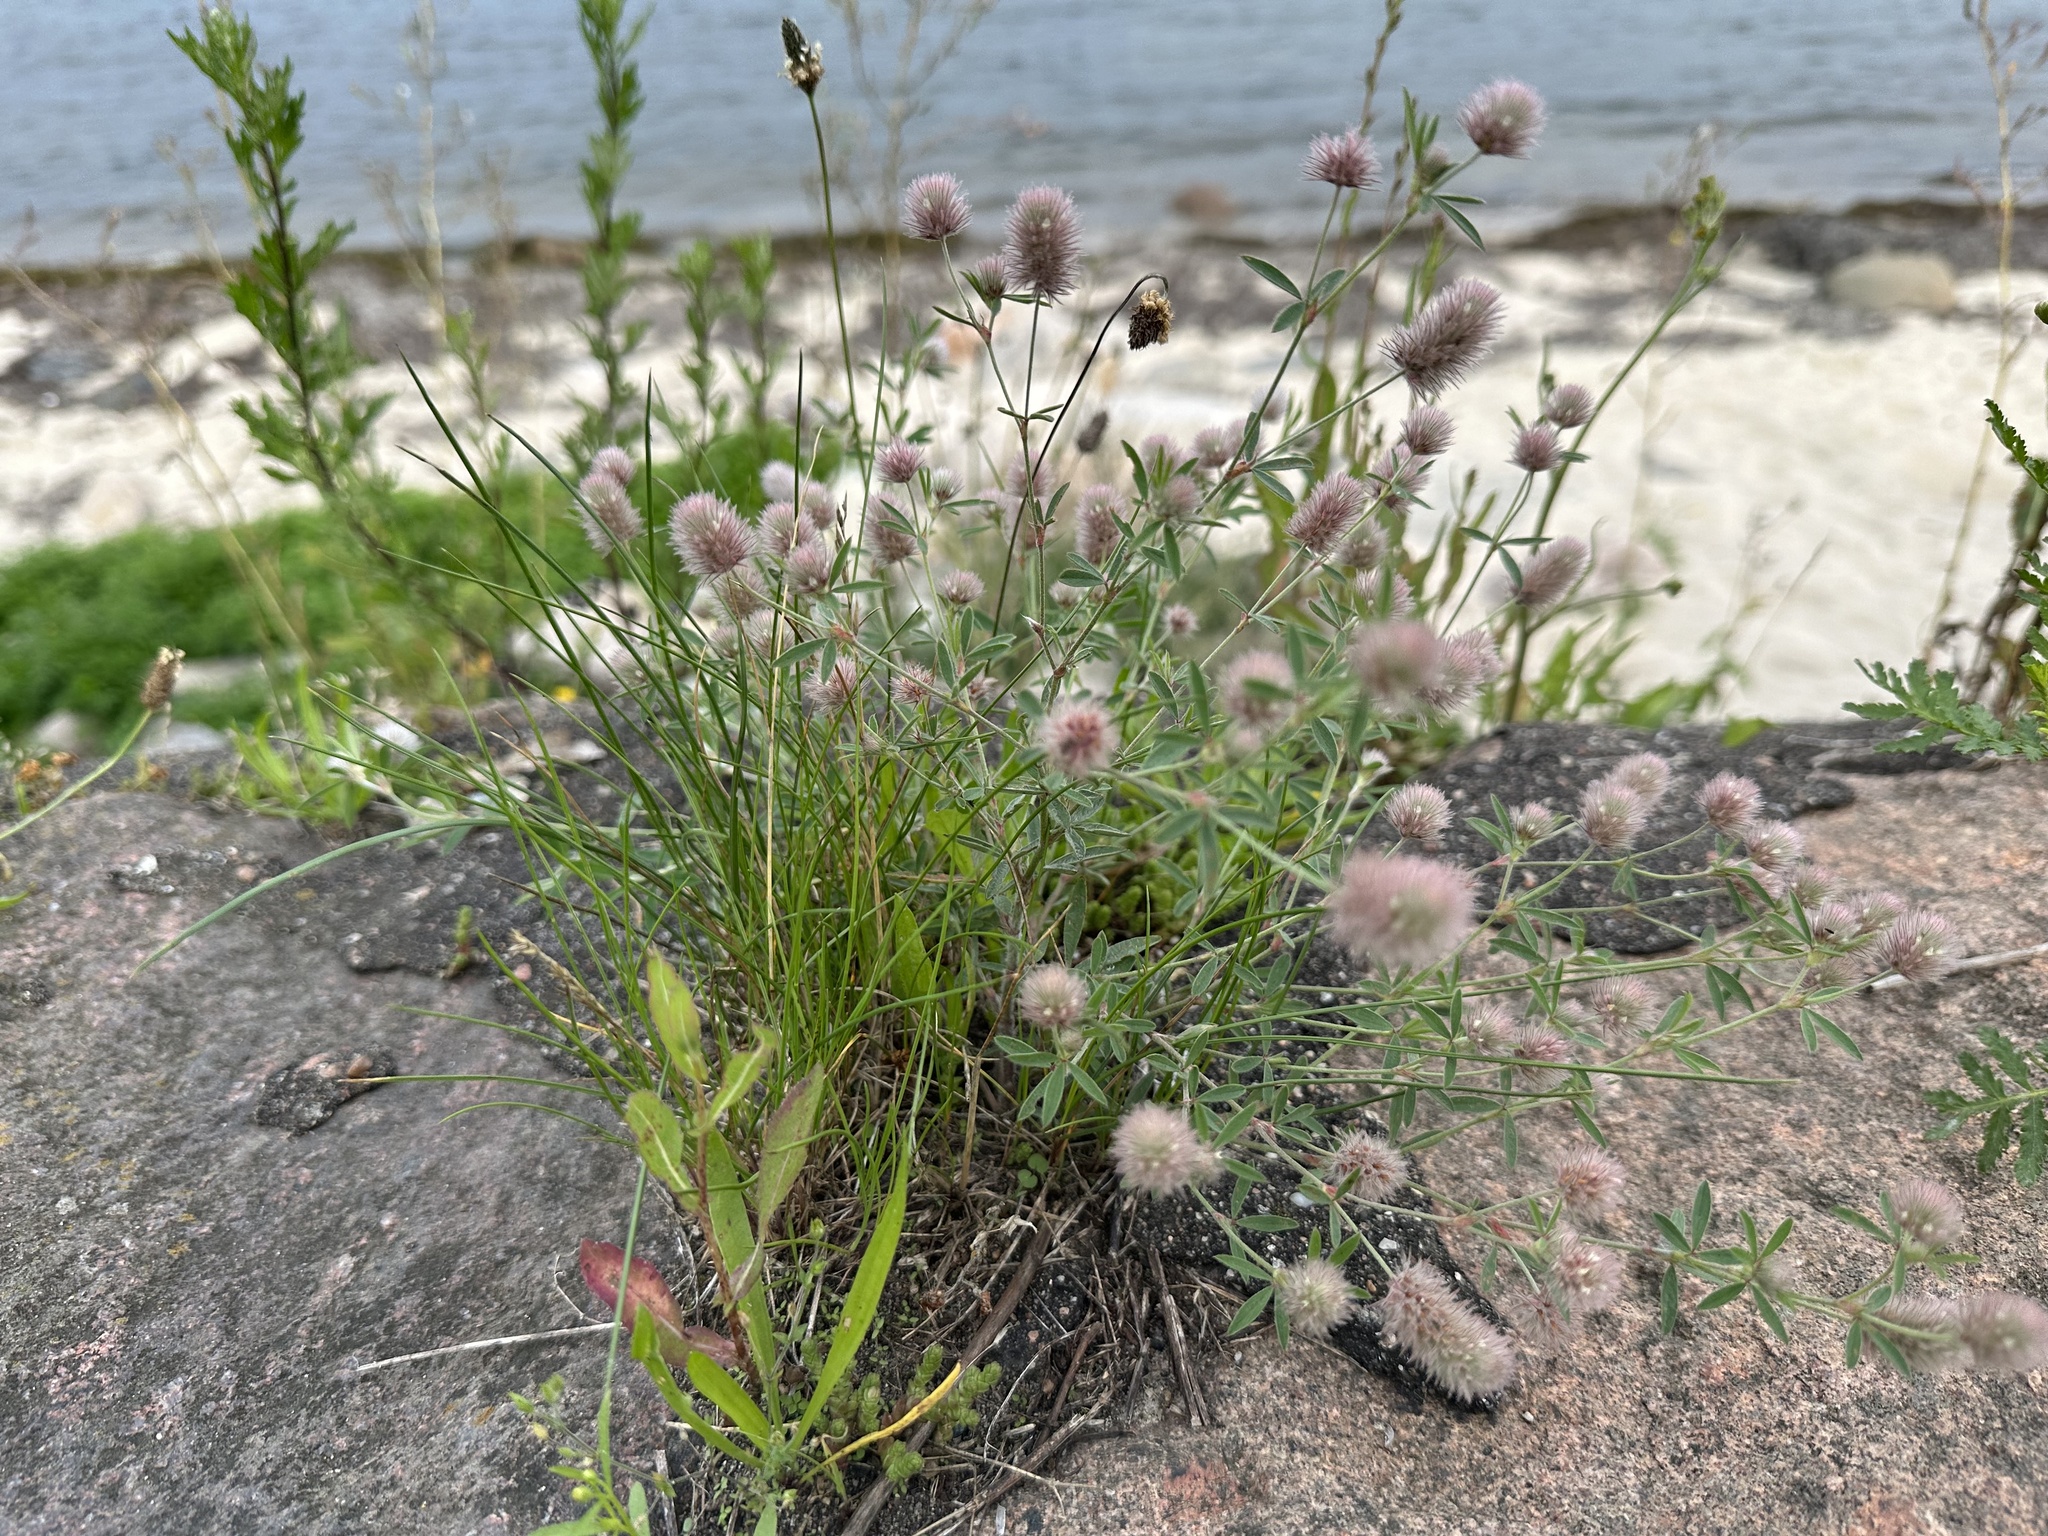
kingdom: Plantae
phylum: Tracheophyta
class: Magnoliopsida
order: Fabales
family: Fabaceae
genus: Trifolium
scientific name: Trifolium arvense
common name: Hare's-foot clover
